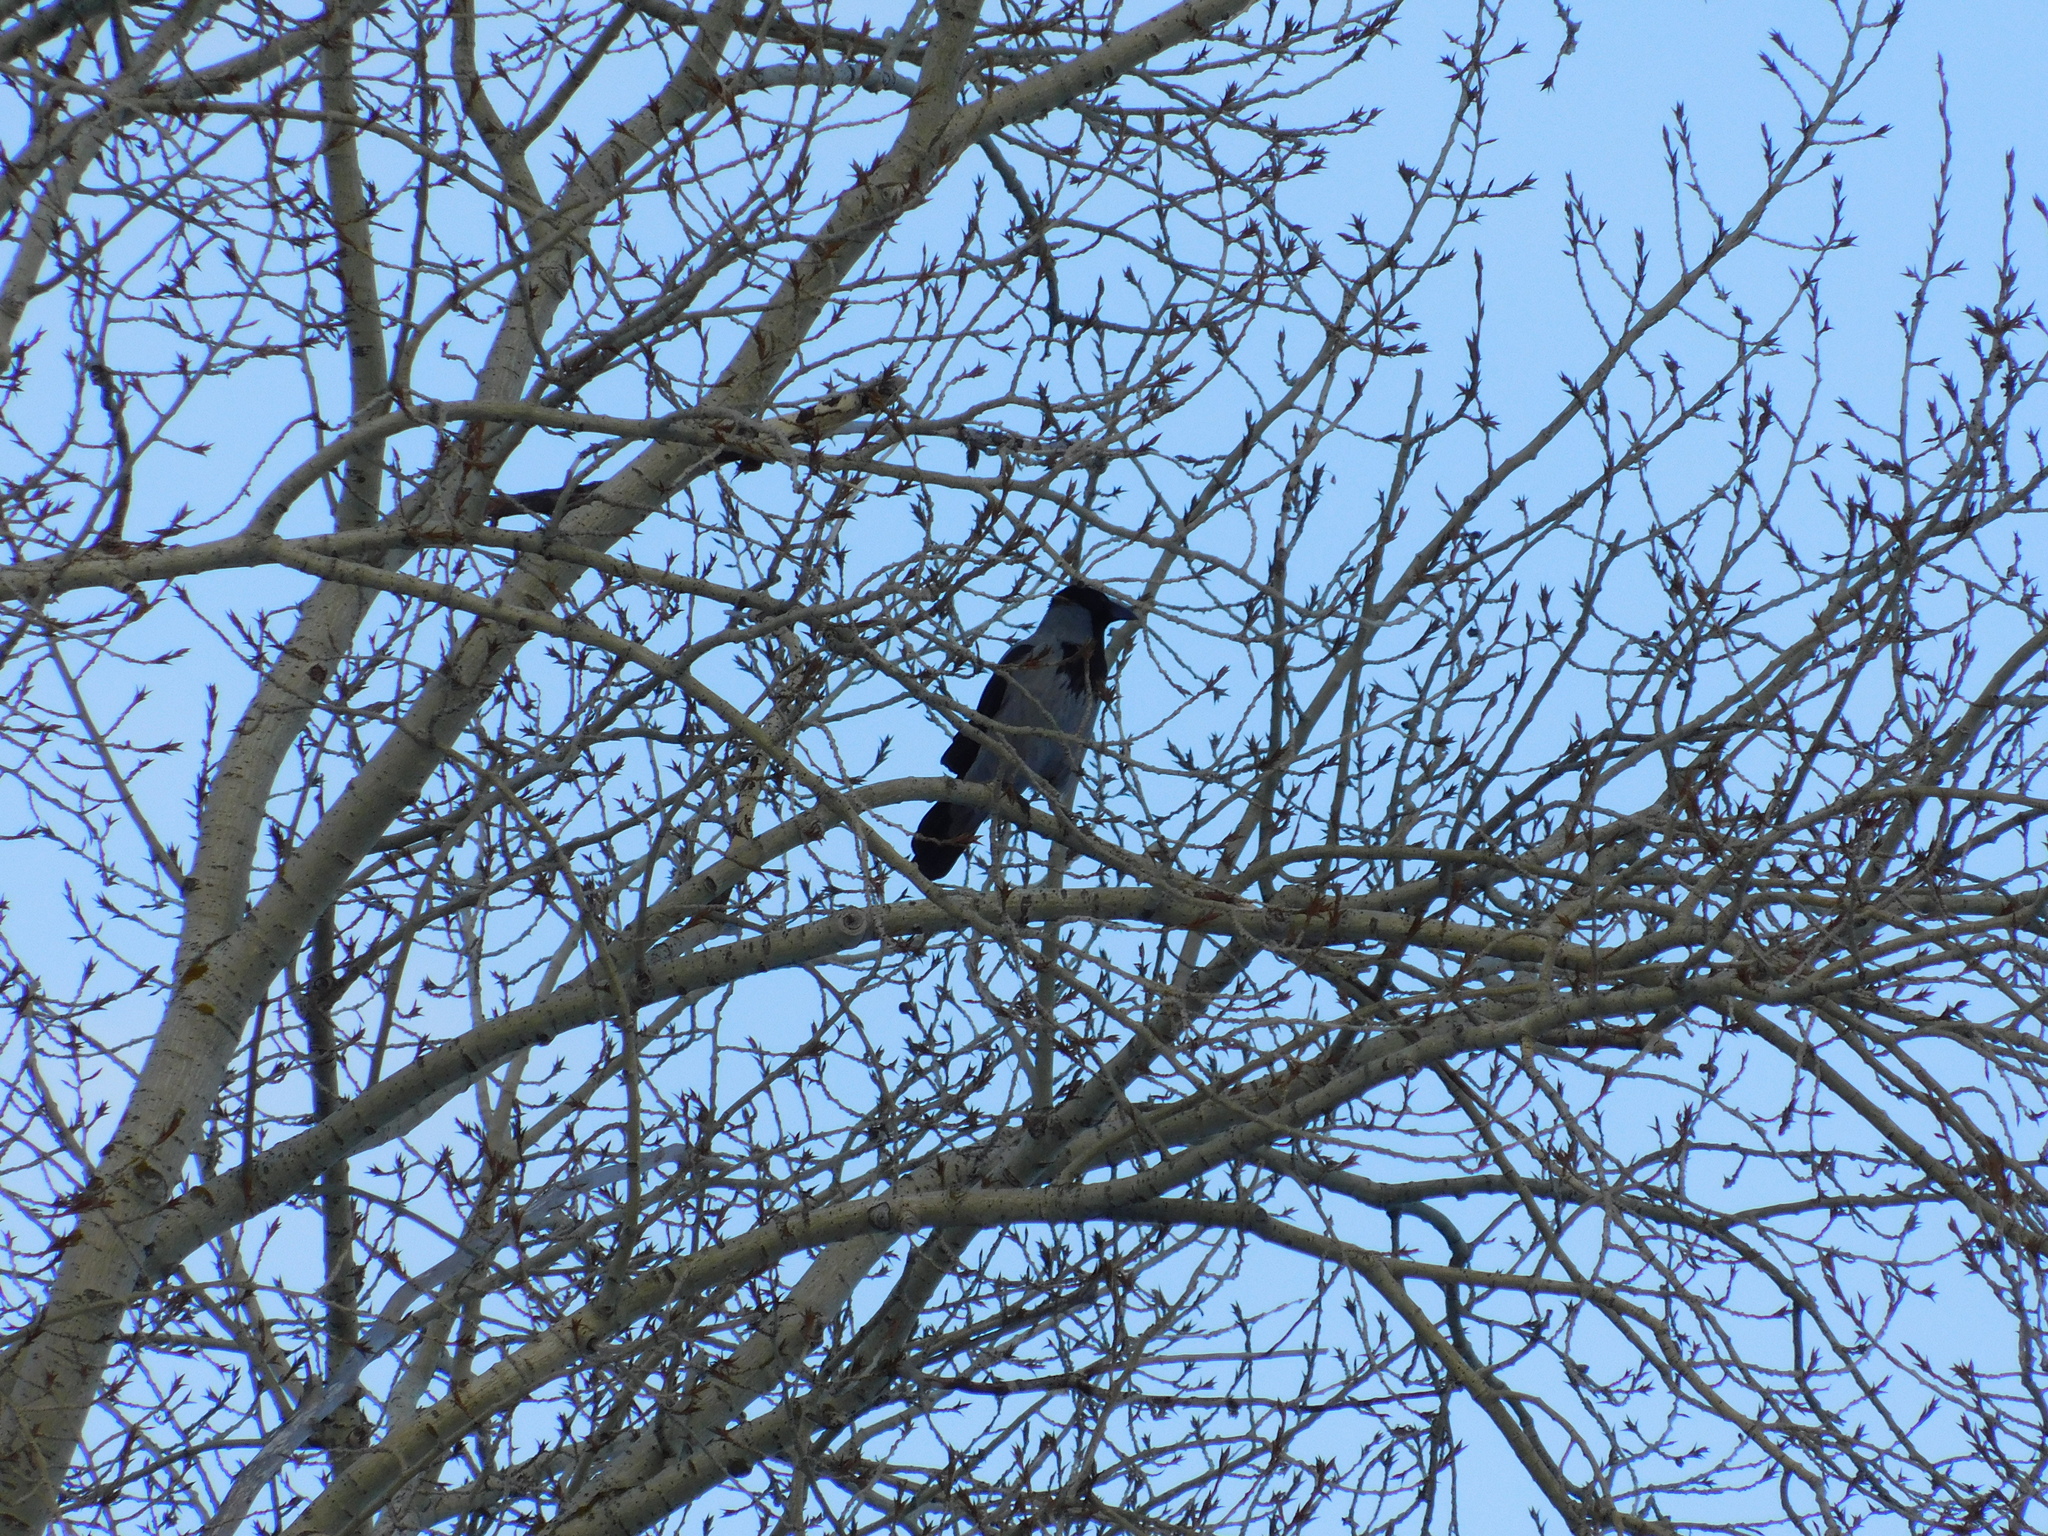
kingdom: Animalia
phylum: Chordata
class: Aves
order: Passeriformes
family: Corvidae
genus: Corvus
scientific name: Corvus cornix
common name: Hooded crow
